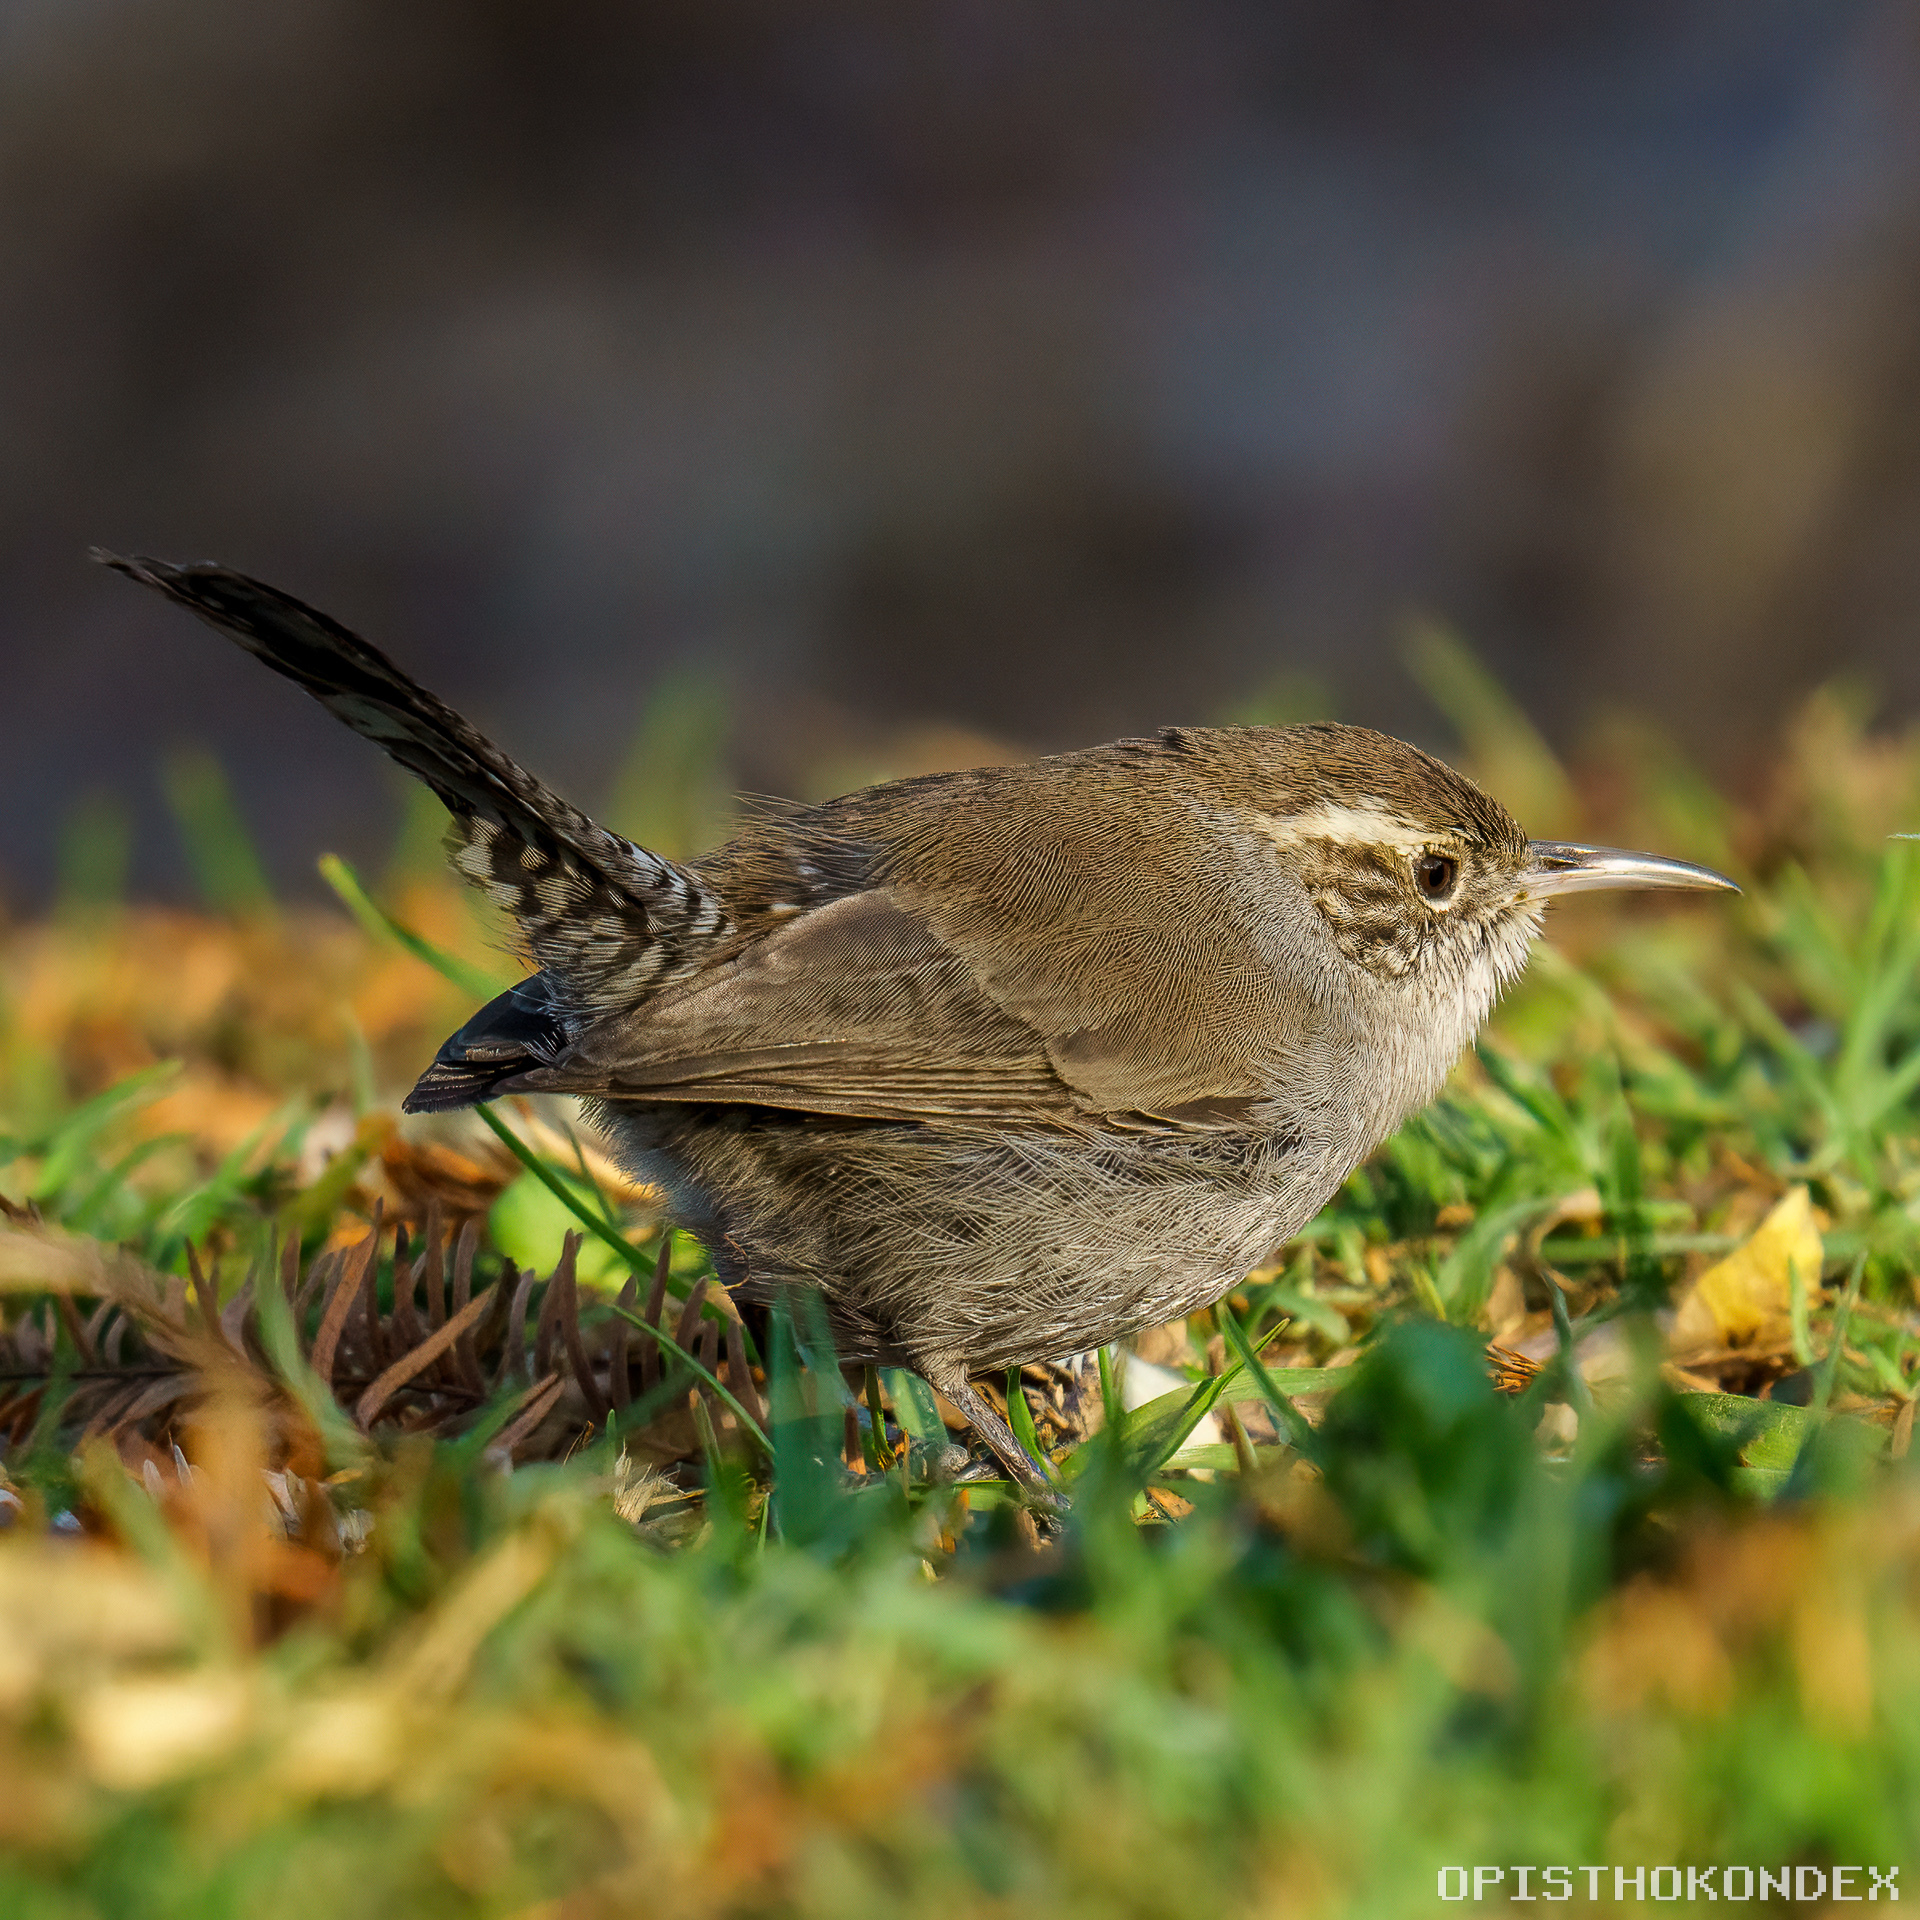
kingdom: Animalia
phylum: Chordata
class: Aves
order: Passeriformes
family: Troglodytidae
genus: Thryomanes
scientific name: Thryomanes bewickii
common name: Bewick's wren
